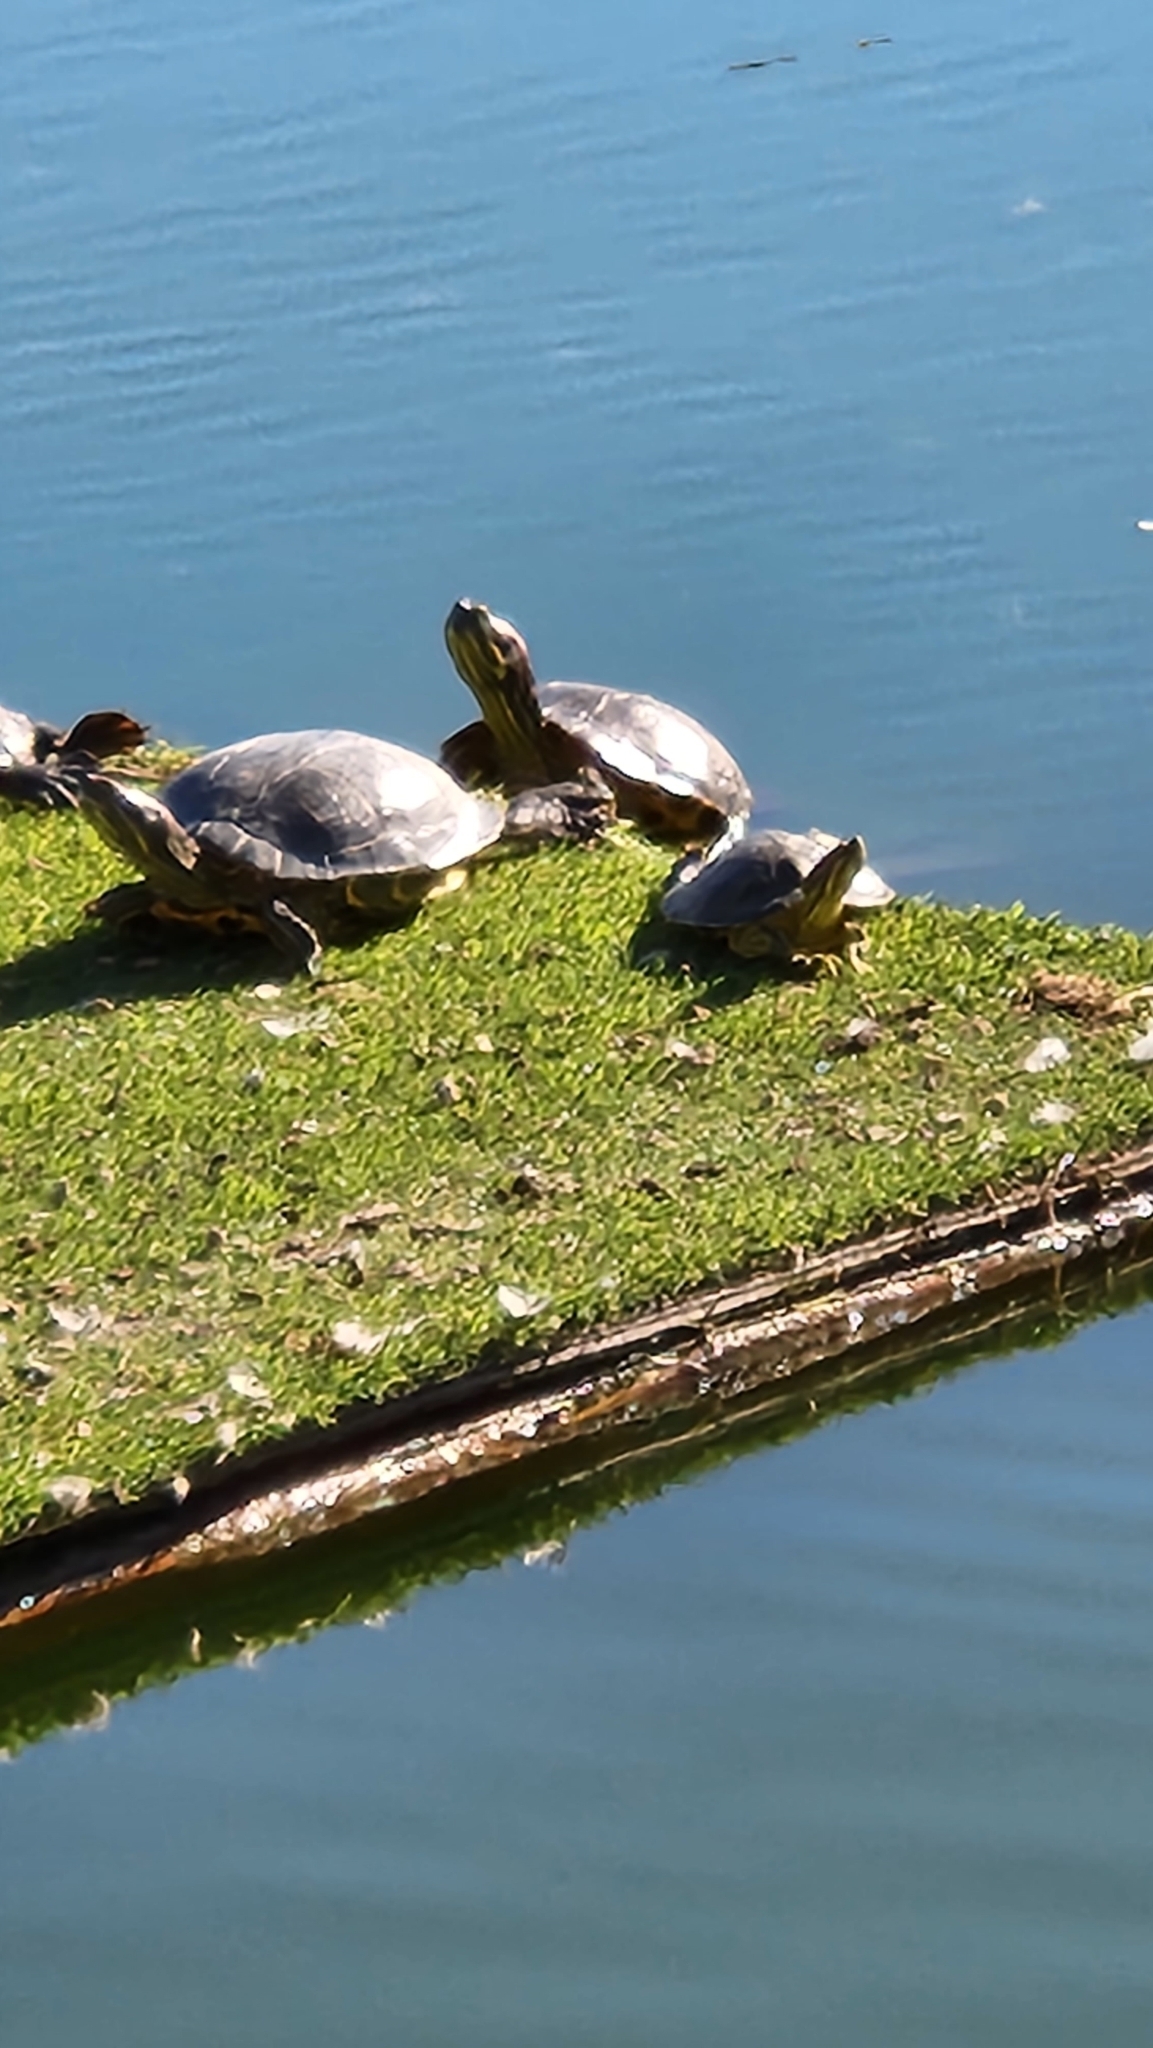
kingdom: Animalia
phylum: Chordata
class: Testudines
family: Emydidae
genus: Trachemys
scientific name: Trachemys scripta
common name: Slider
